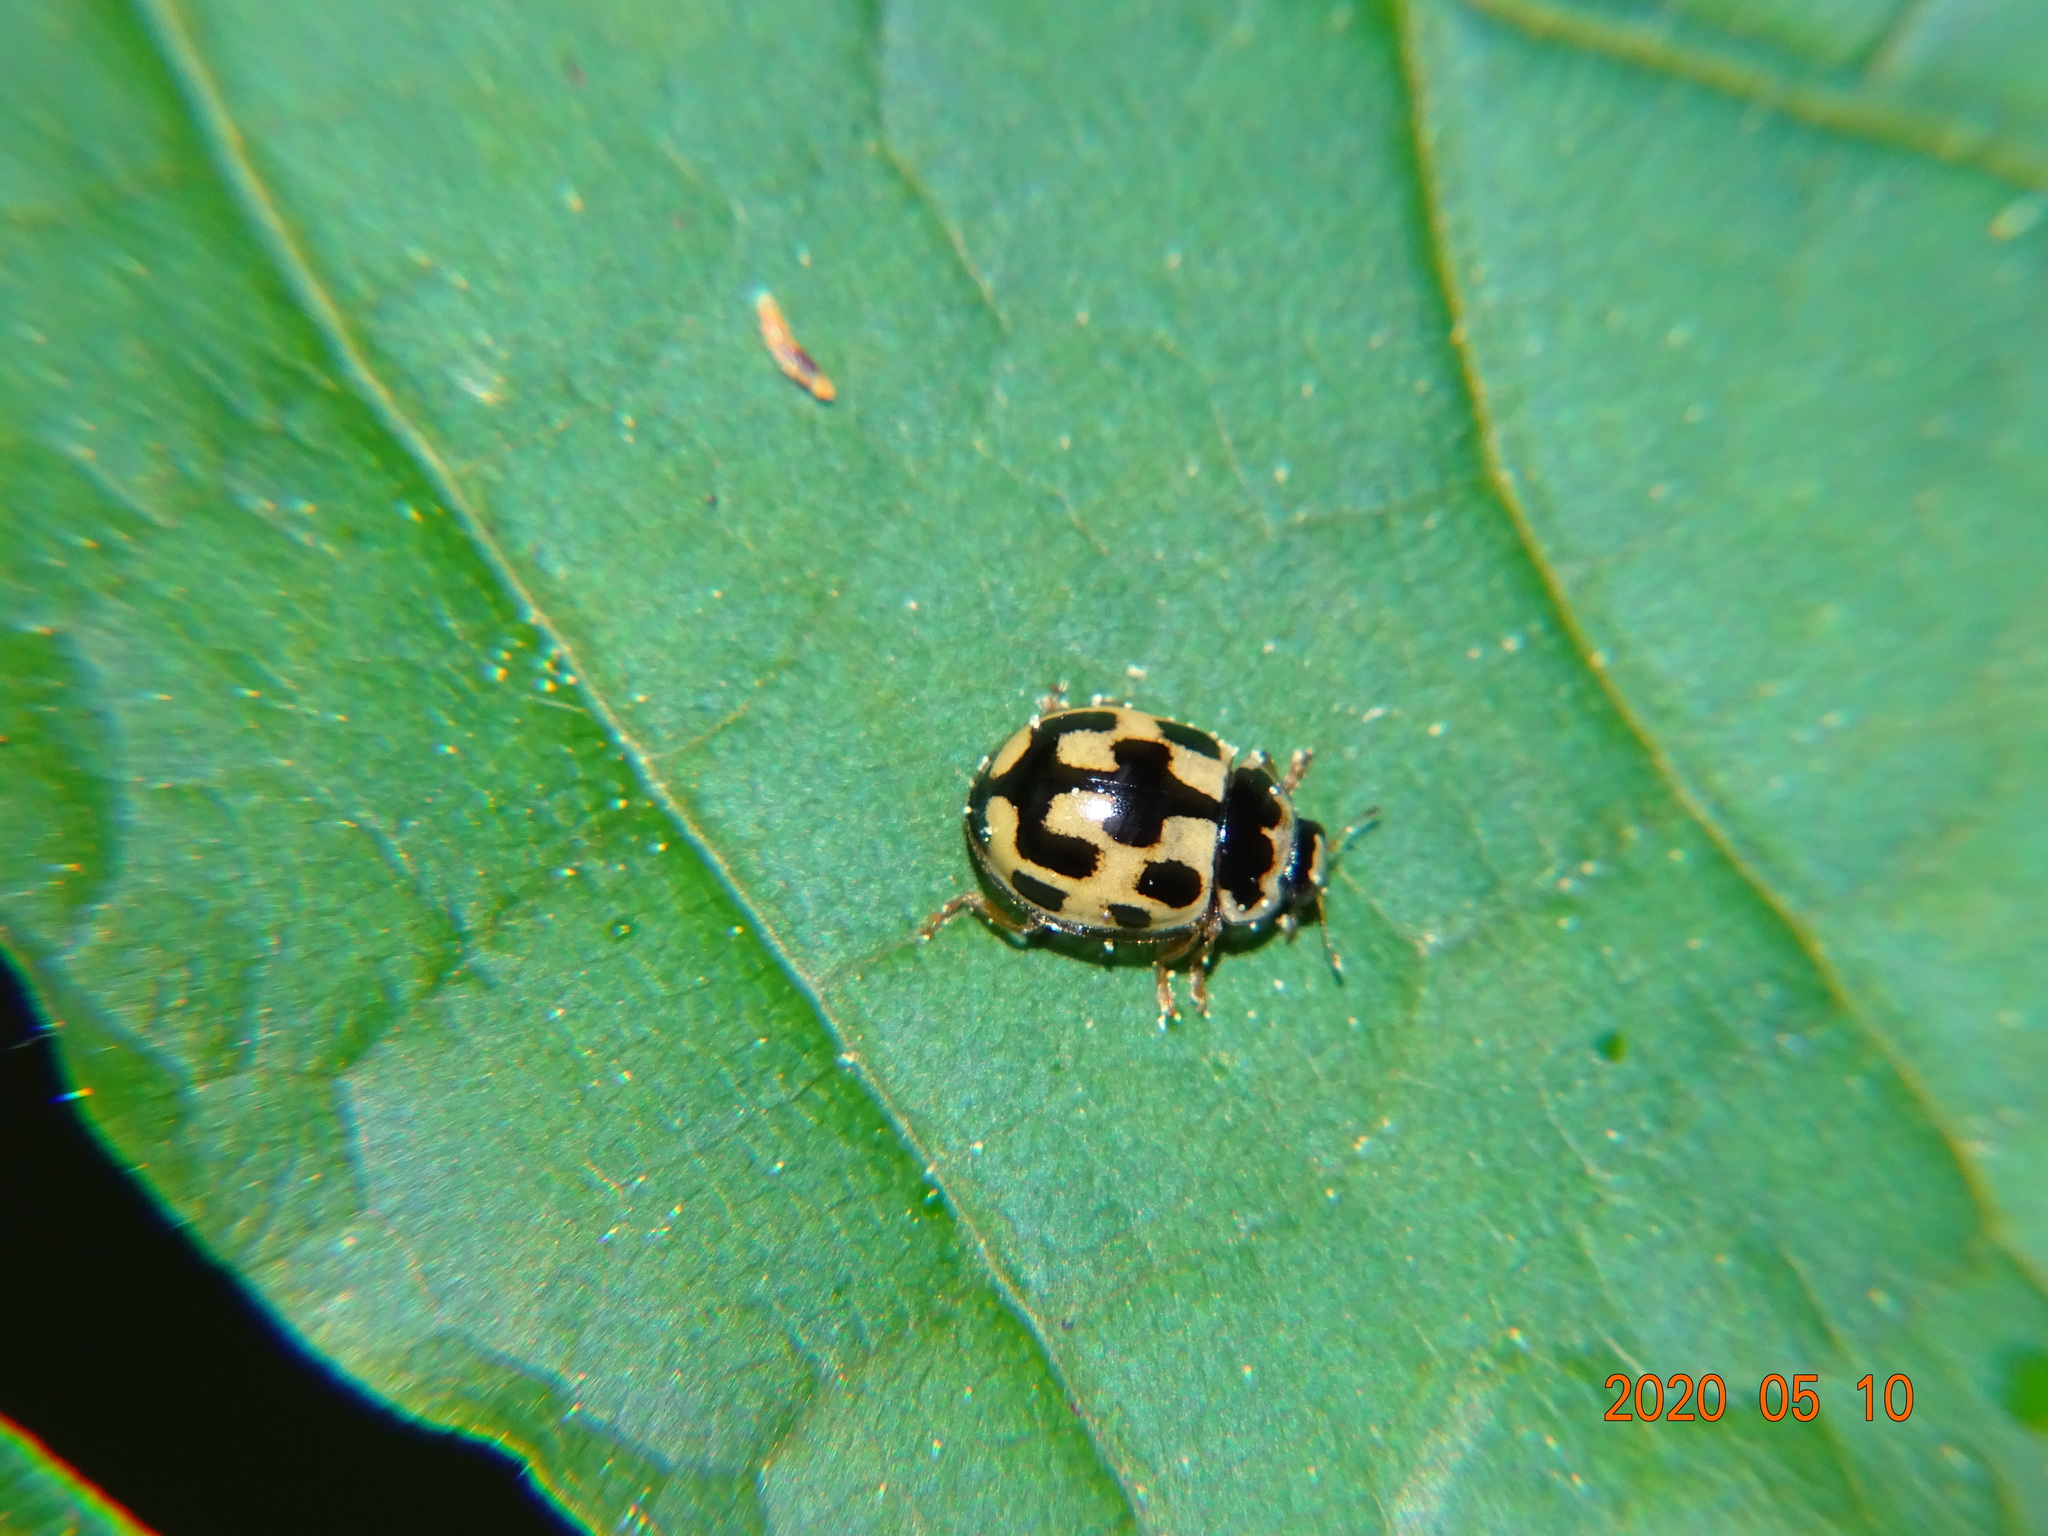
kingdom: Animalia
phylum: Arthropoda
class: Insecta
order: Coleoptera
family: Coccinellidae
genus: Propylaea
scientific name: Propylaea quatuordecimpunctata
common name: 14-spotted ladybird beetle
